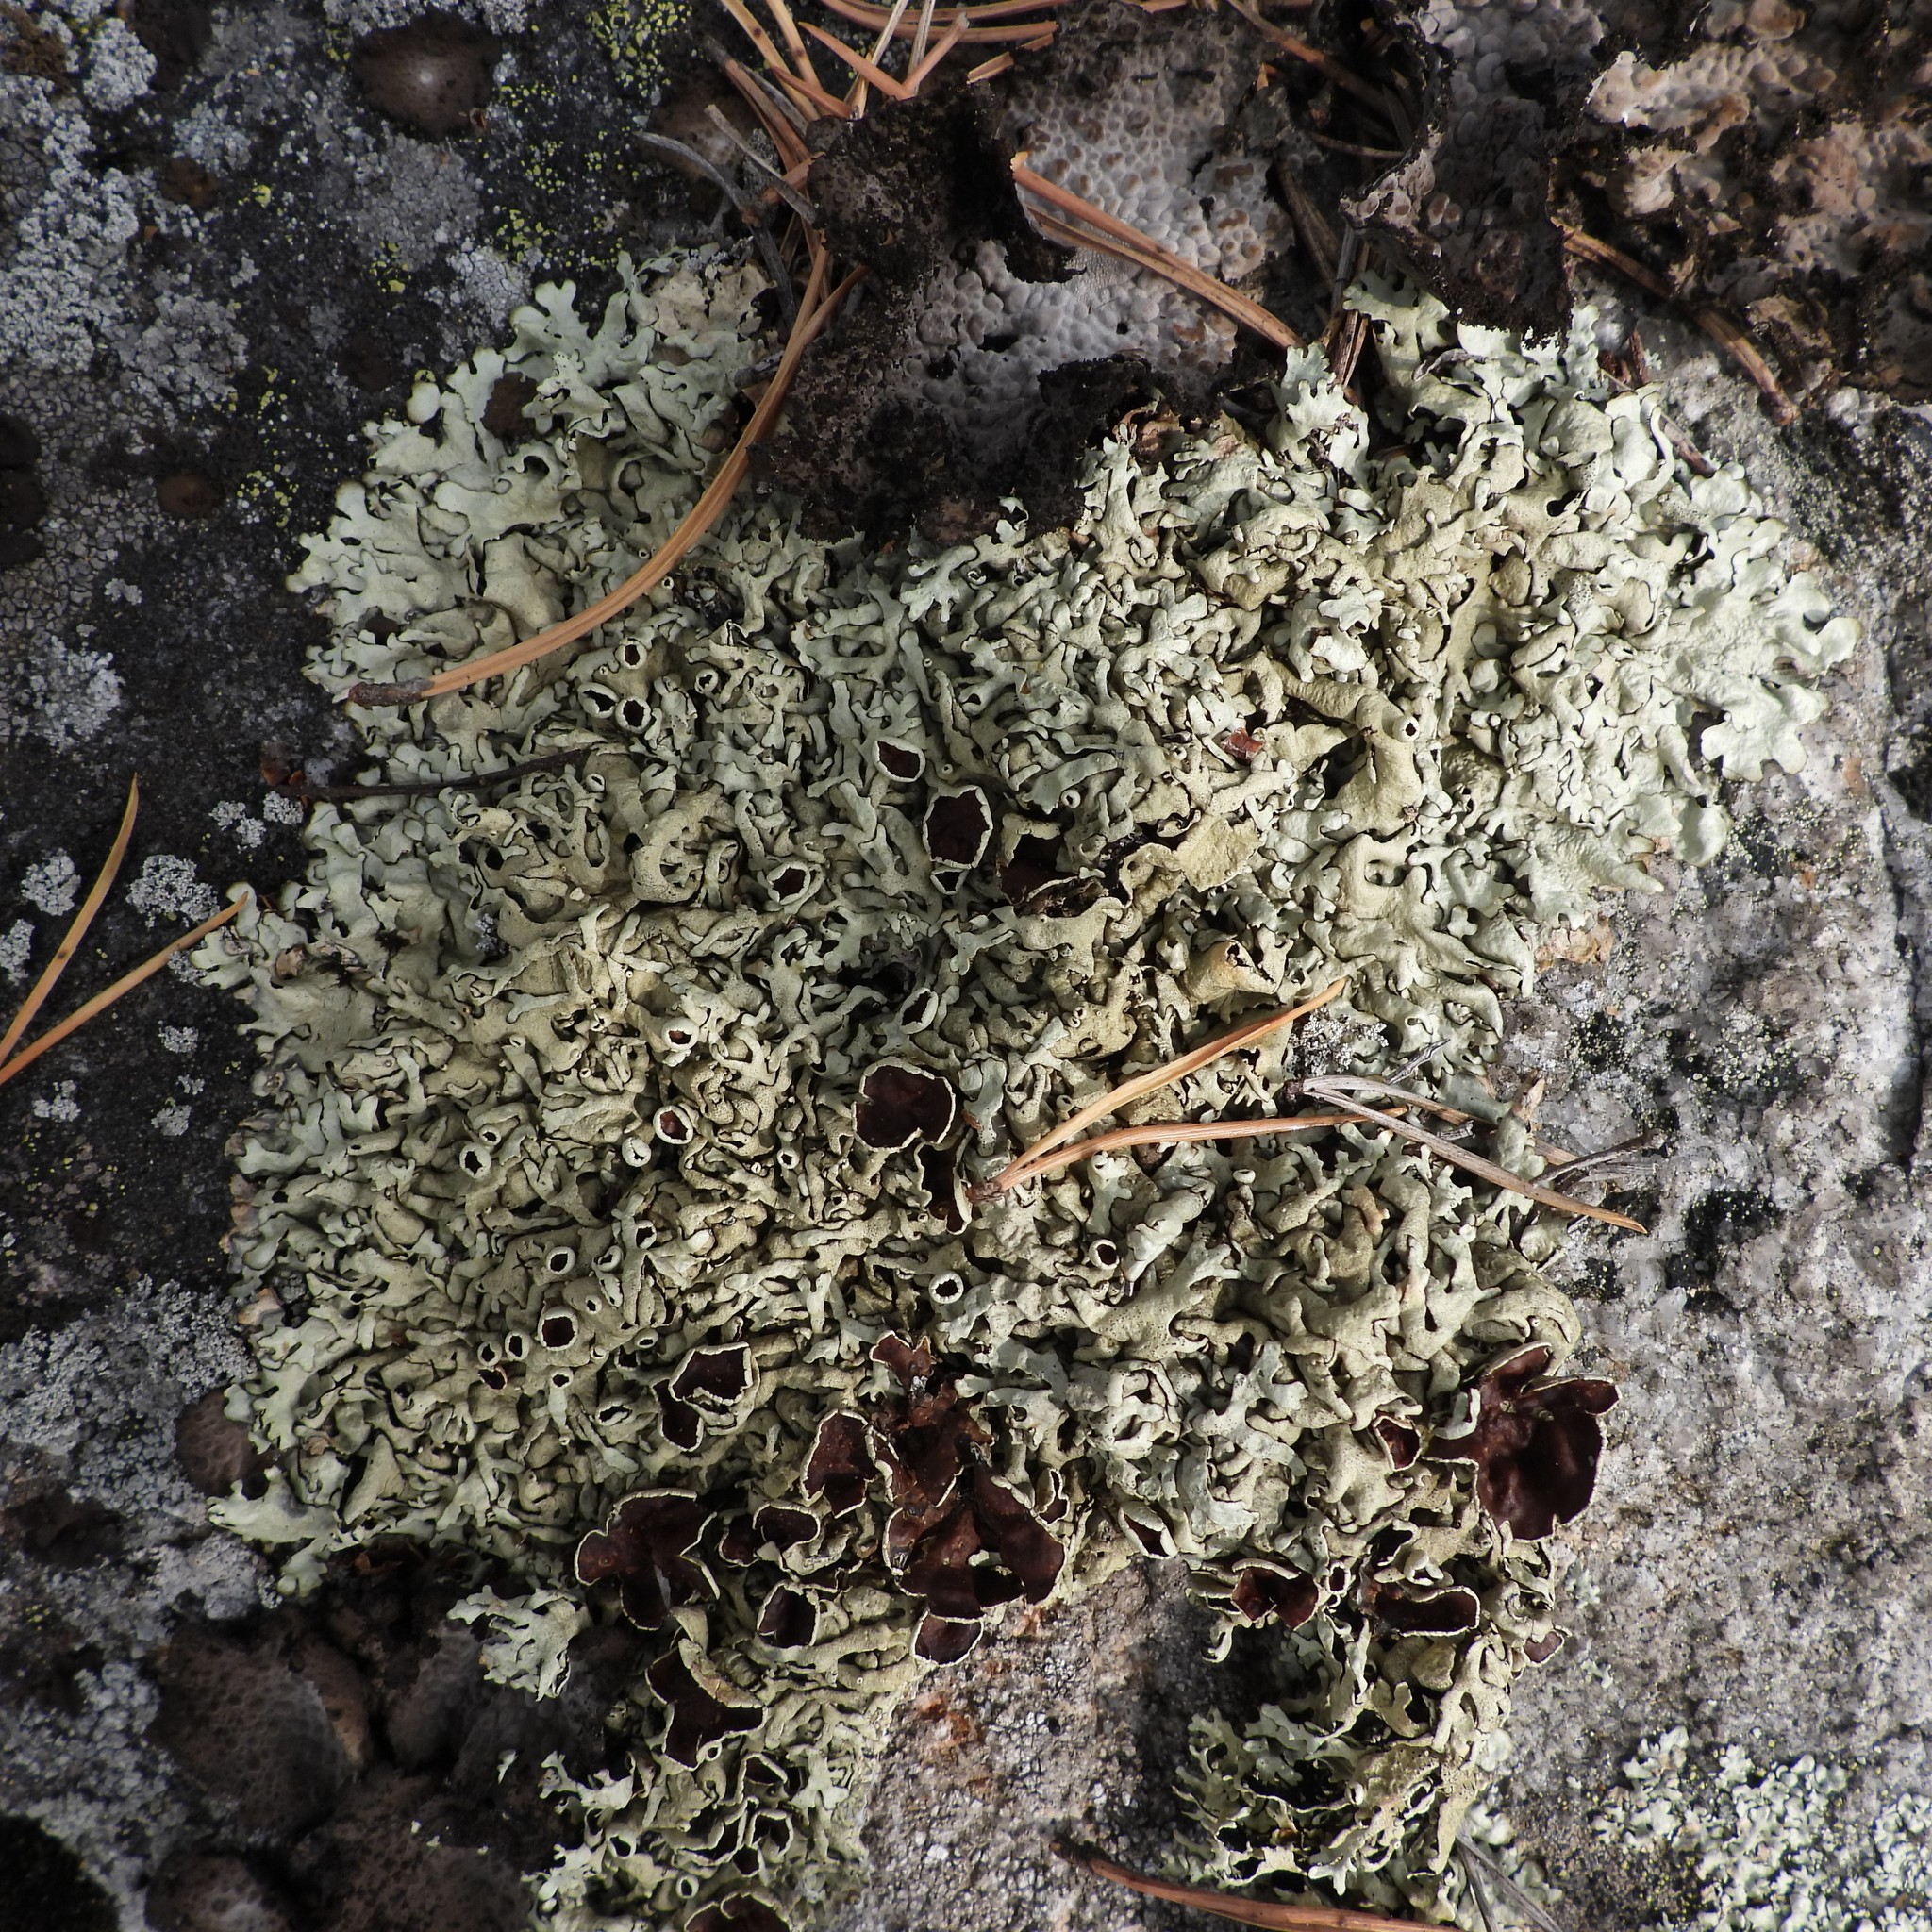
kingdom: Fungi
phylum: Ascomycota
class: Lecanoromycetes
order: Lecanorales
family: Parmeliaceae
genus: Xanthoparmelia
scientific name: Xanthoparmelia stenophylla
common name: Shingled rock shield
